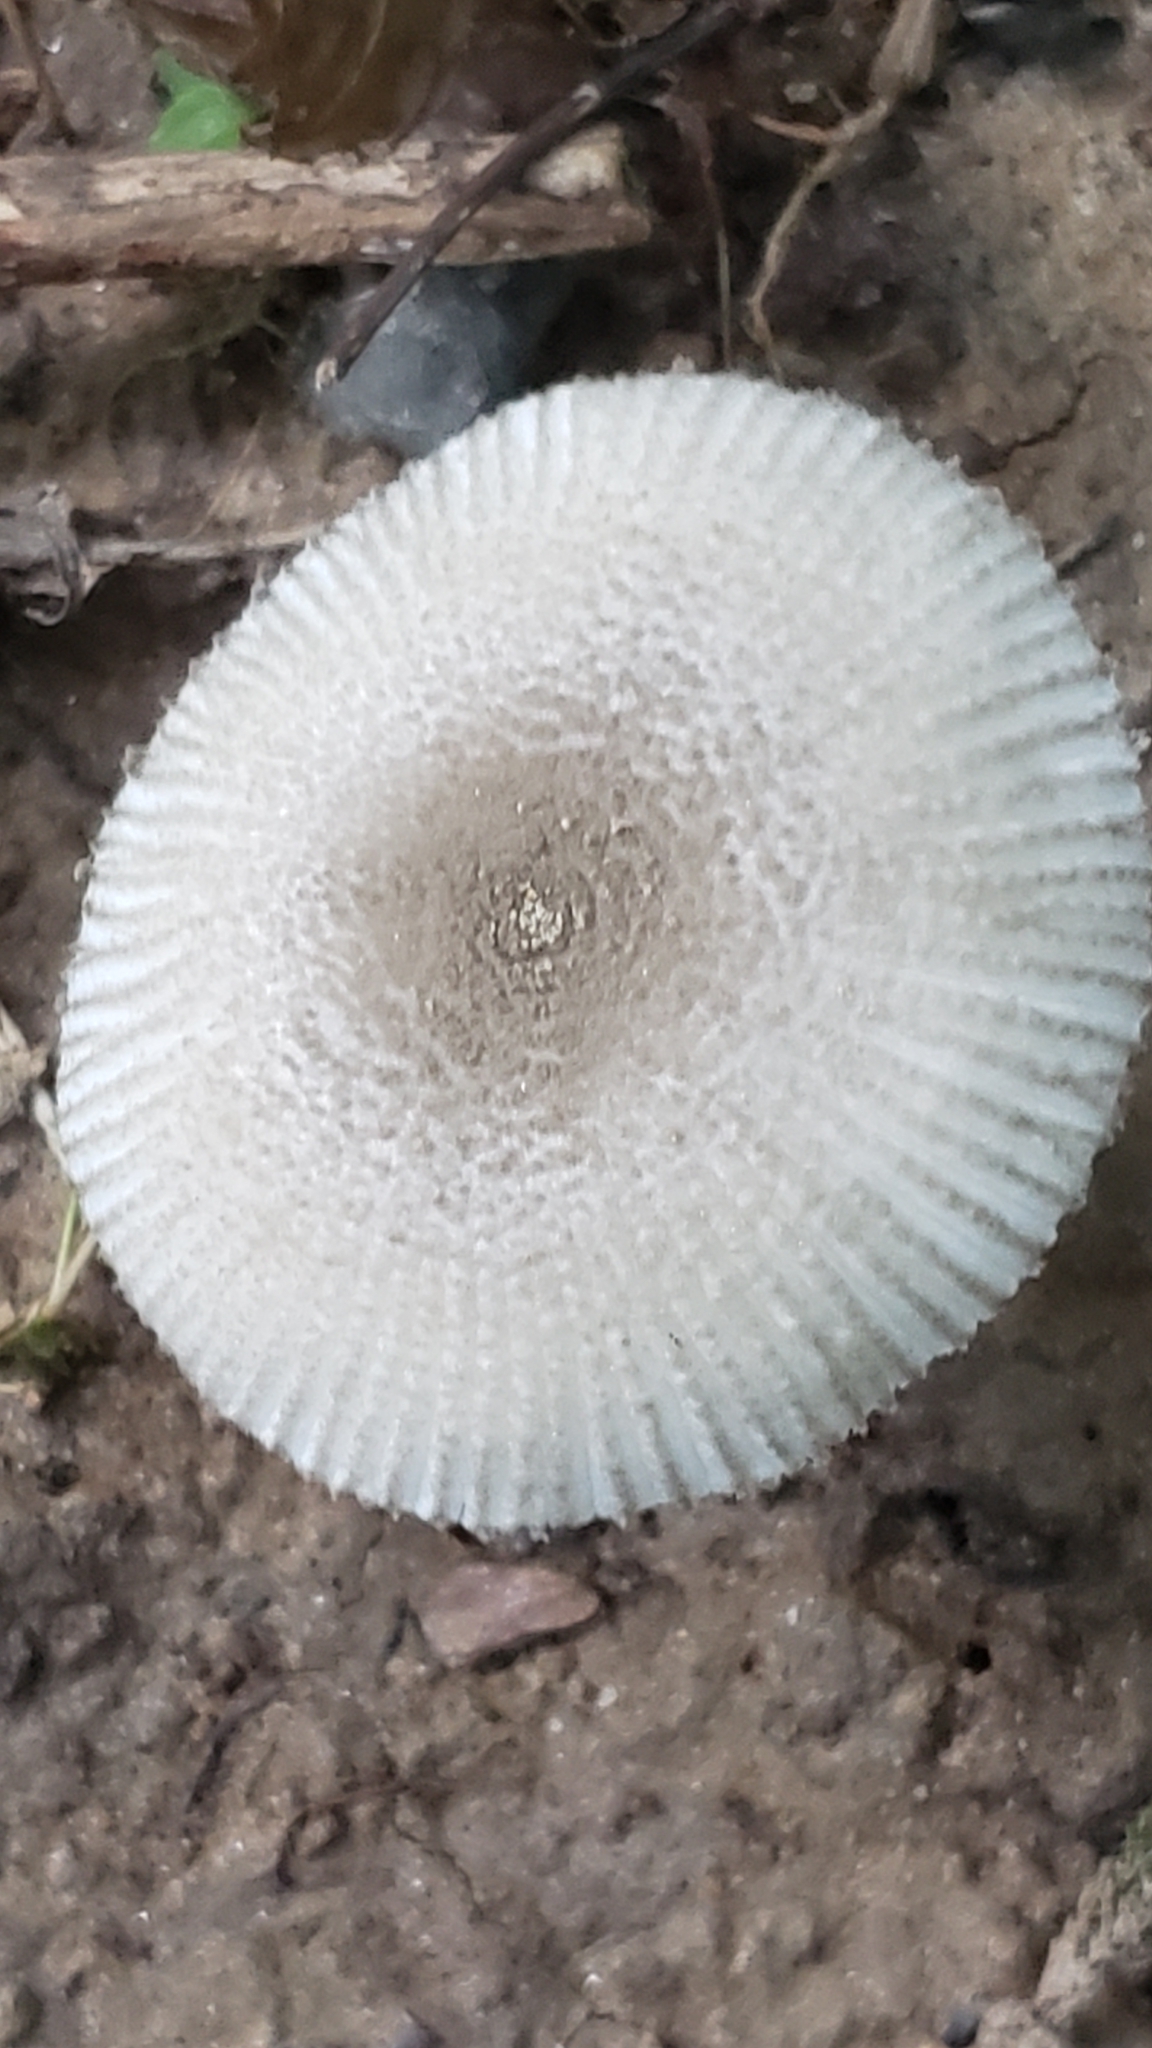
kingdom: Fungi
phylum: Basidiomycota
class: Agaricomycetes
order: Agaricales
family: Amanitaceae
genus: Amanita
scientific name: Amanita farinosa
